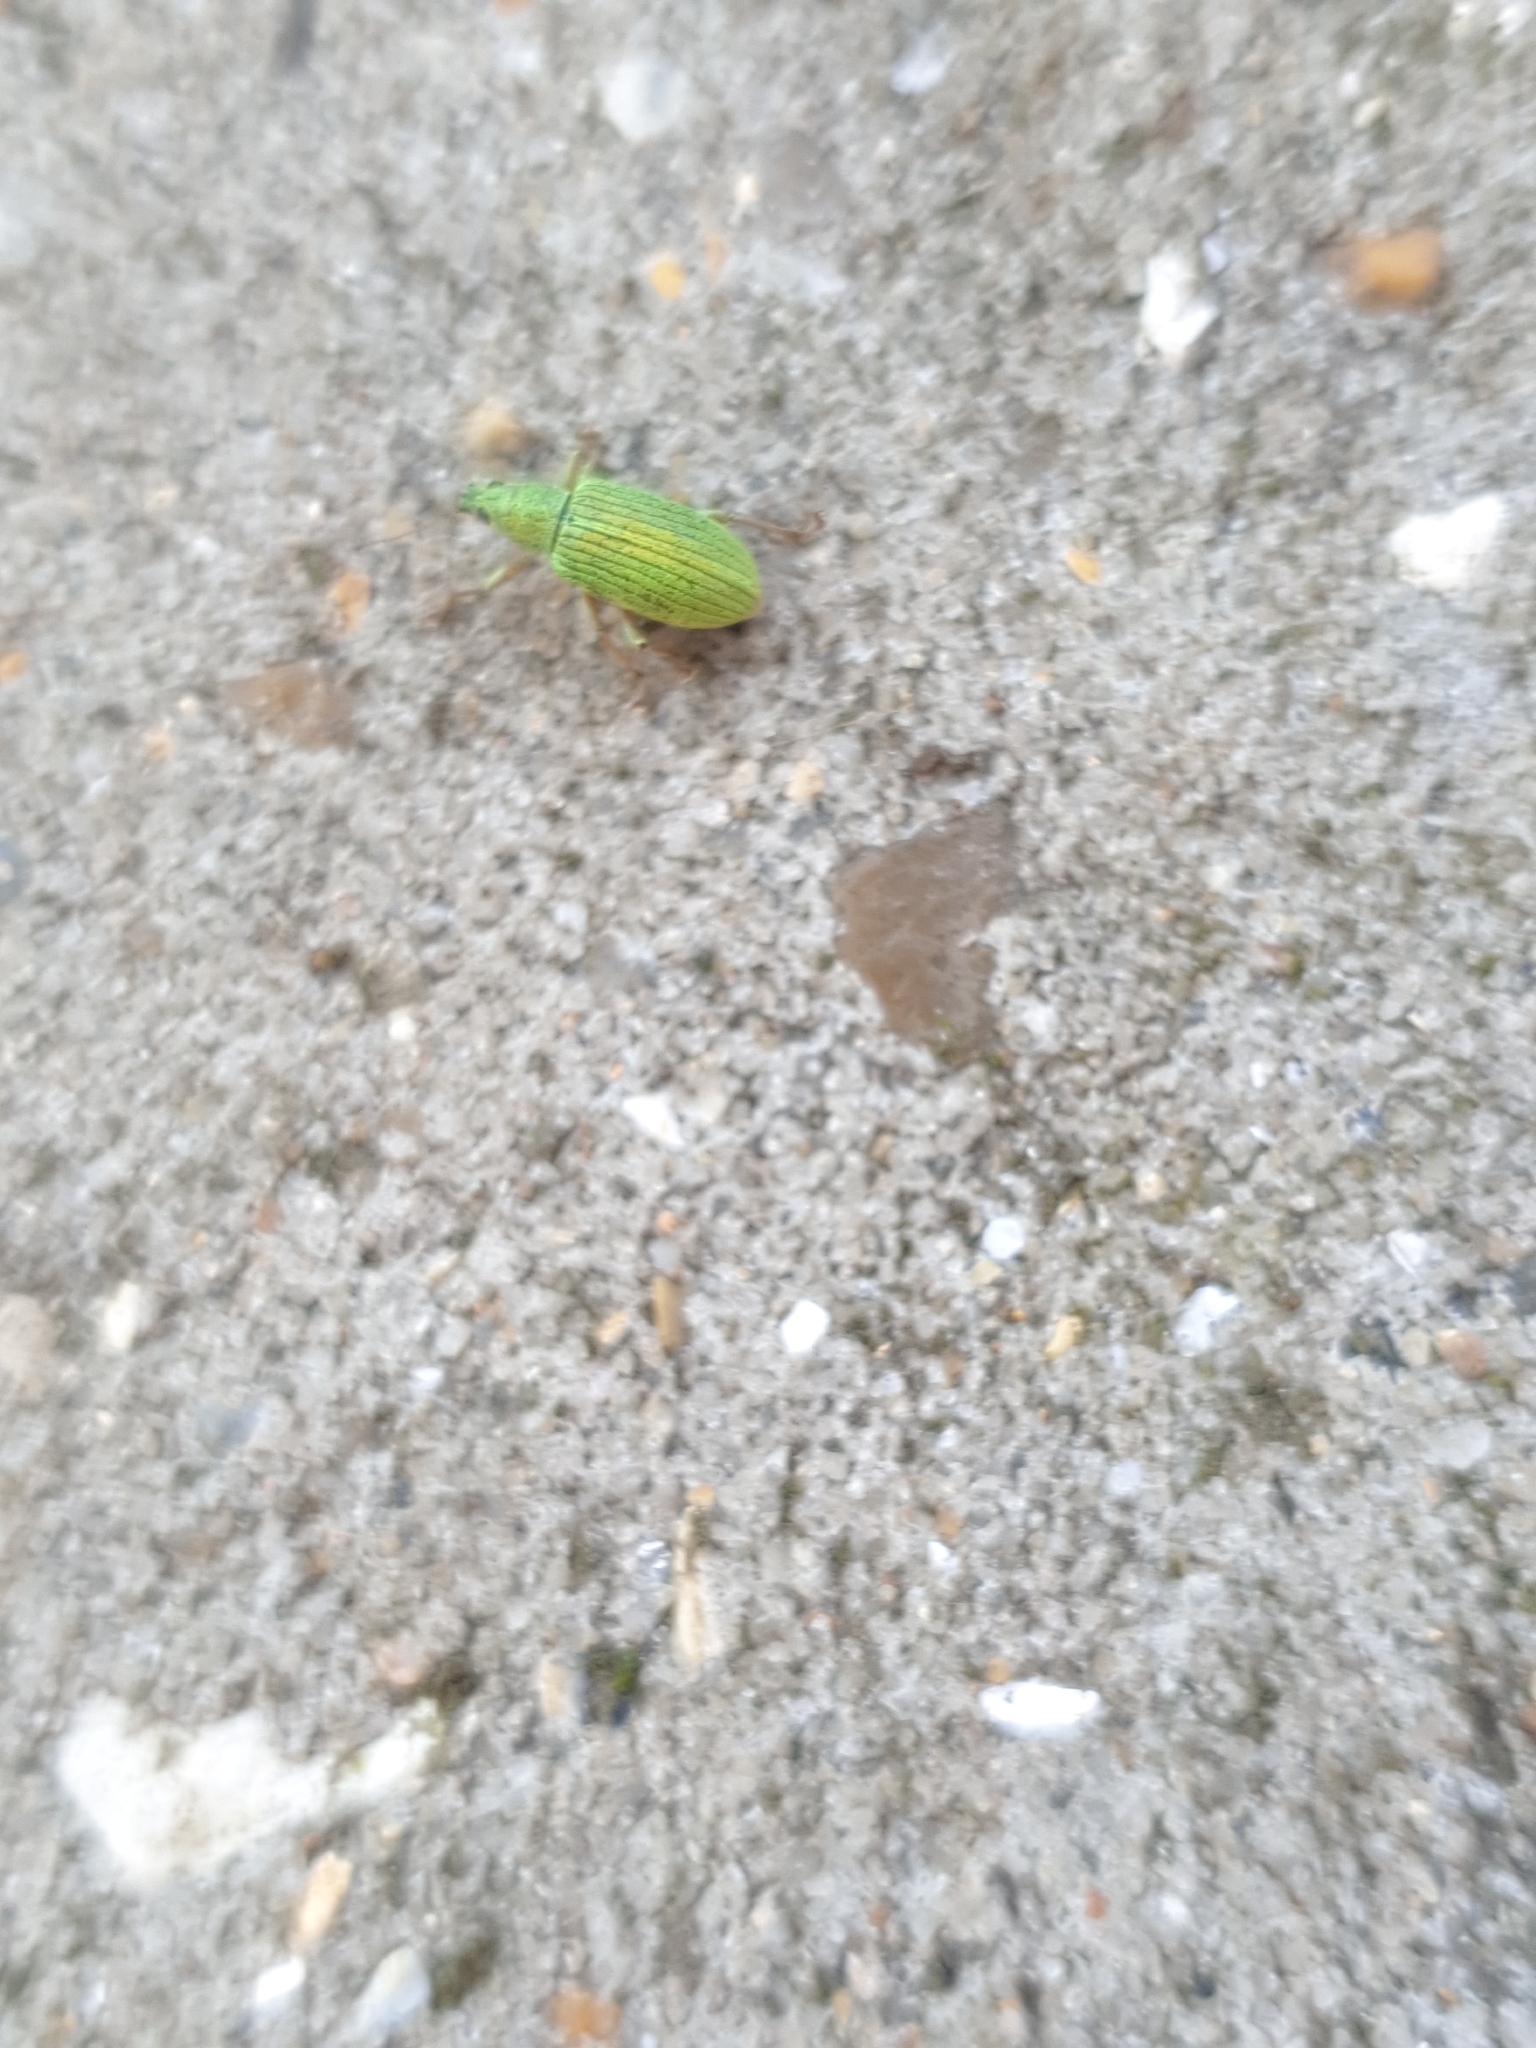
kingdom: Animalia
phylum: Arthropoda
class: Insecta
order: Coleoptera
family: Curculionidae
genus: Polydrusus
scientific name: Polydrusus formosus
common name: Weevil
